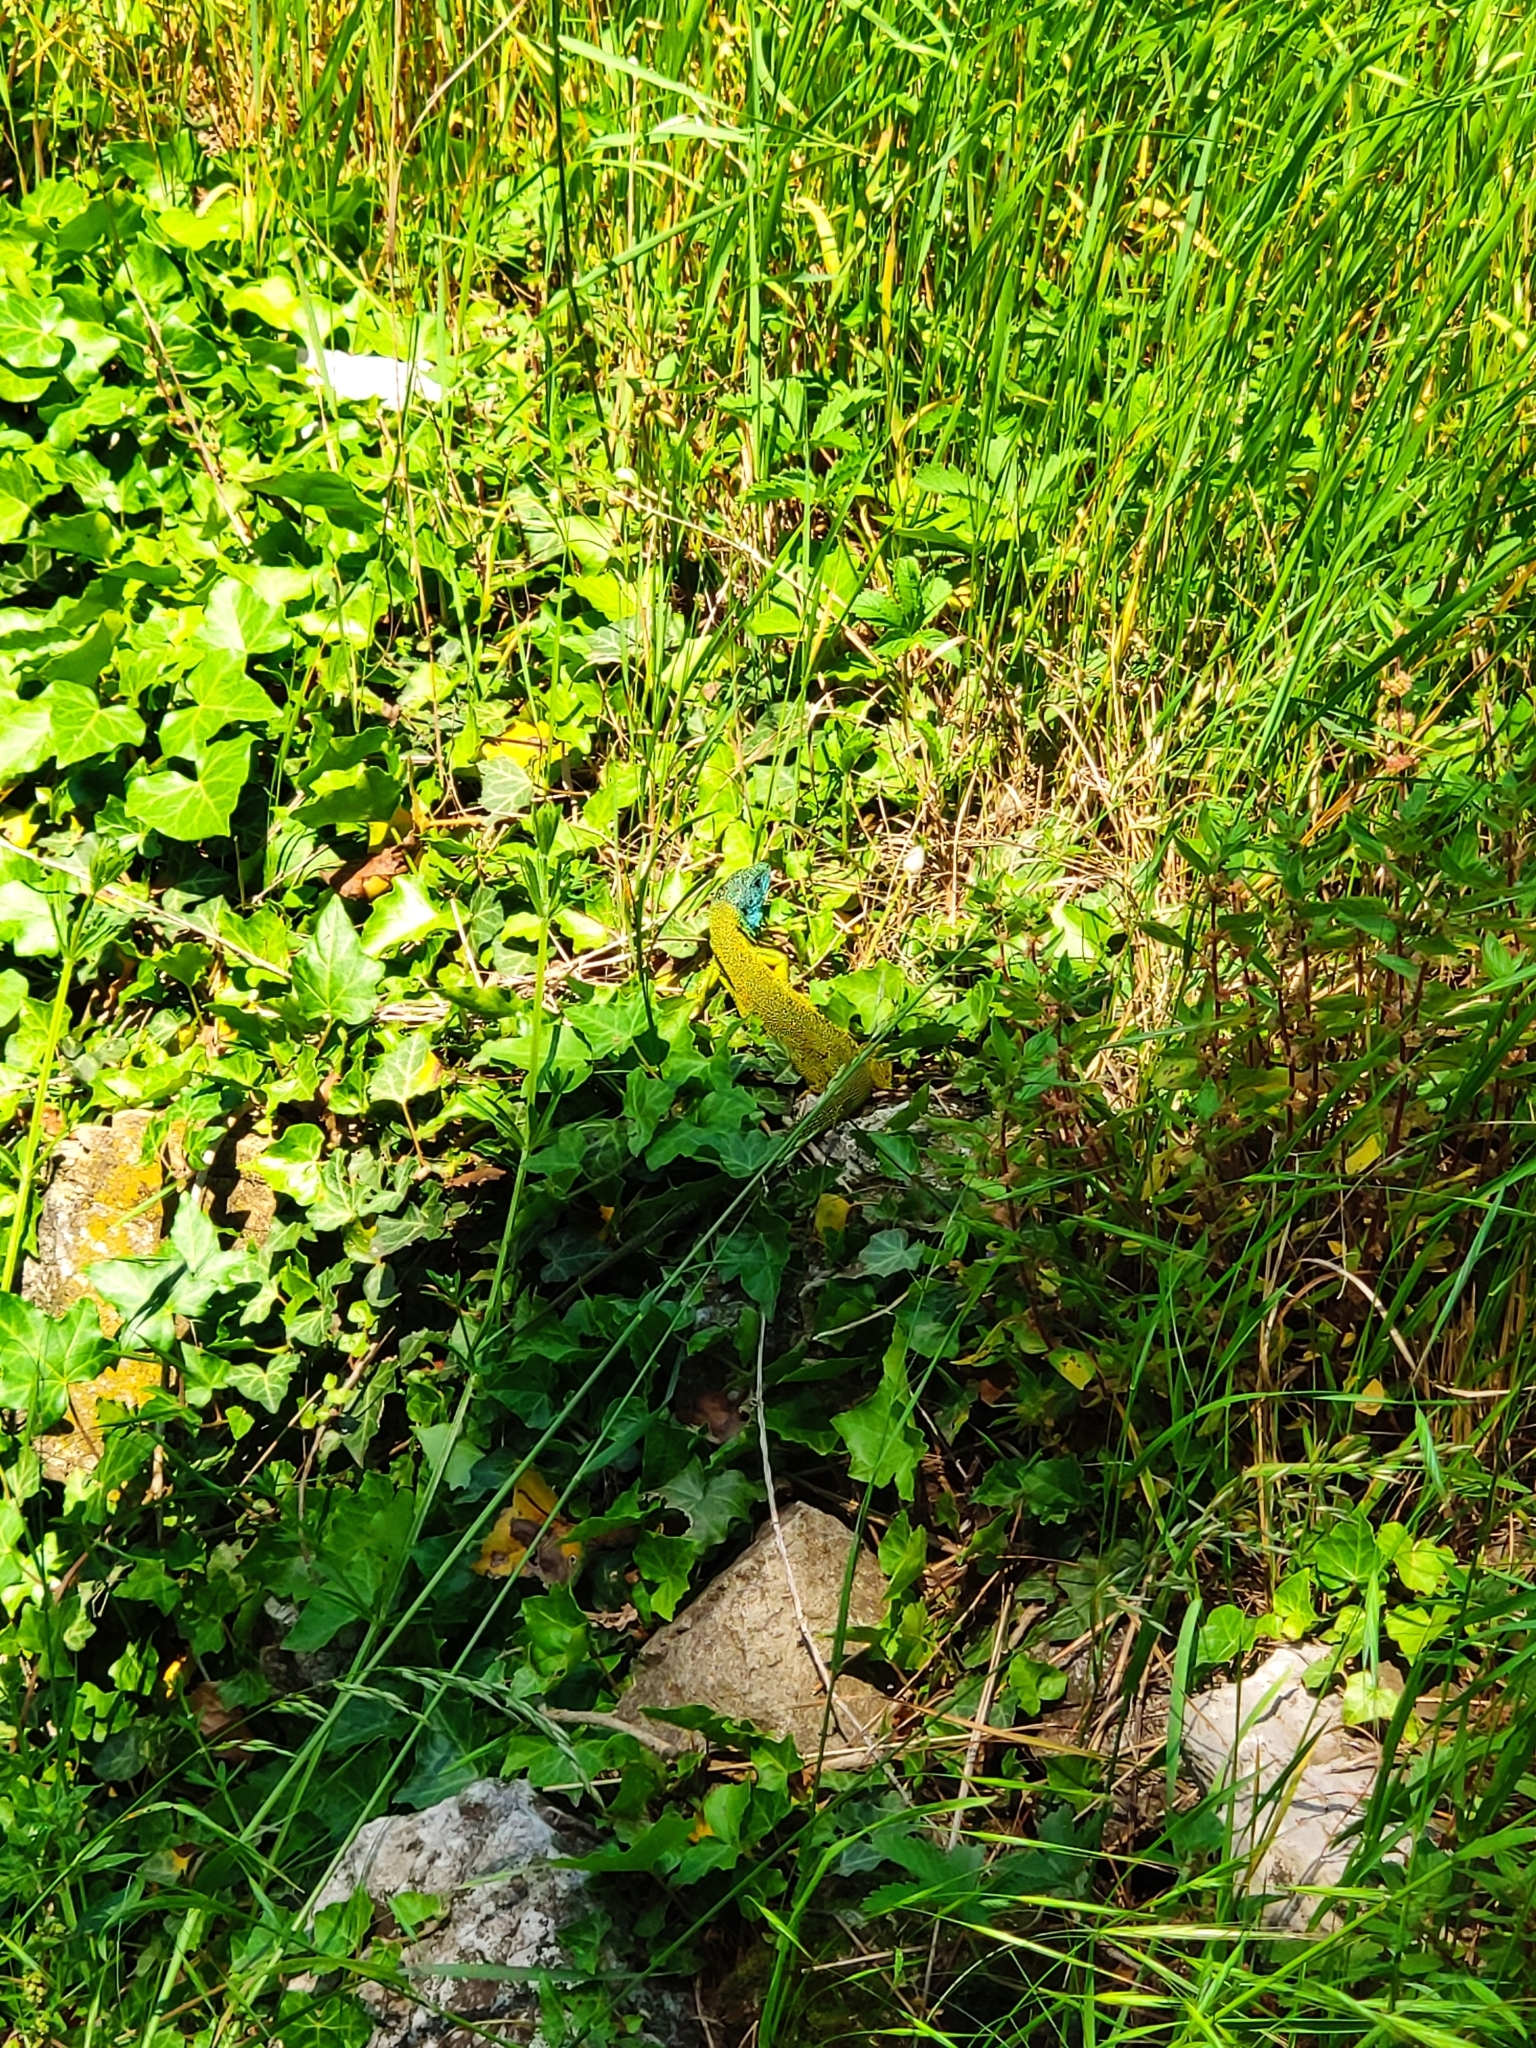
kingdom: Animalia
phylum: Chordata
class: Squamata
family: Lacertidae
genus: Lacerta
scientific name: Lacerta bilineata
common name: Western green lizard
